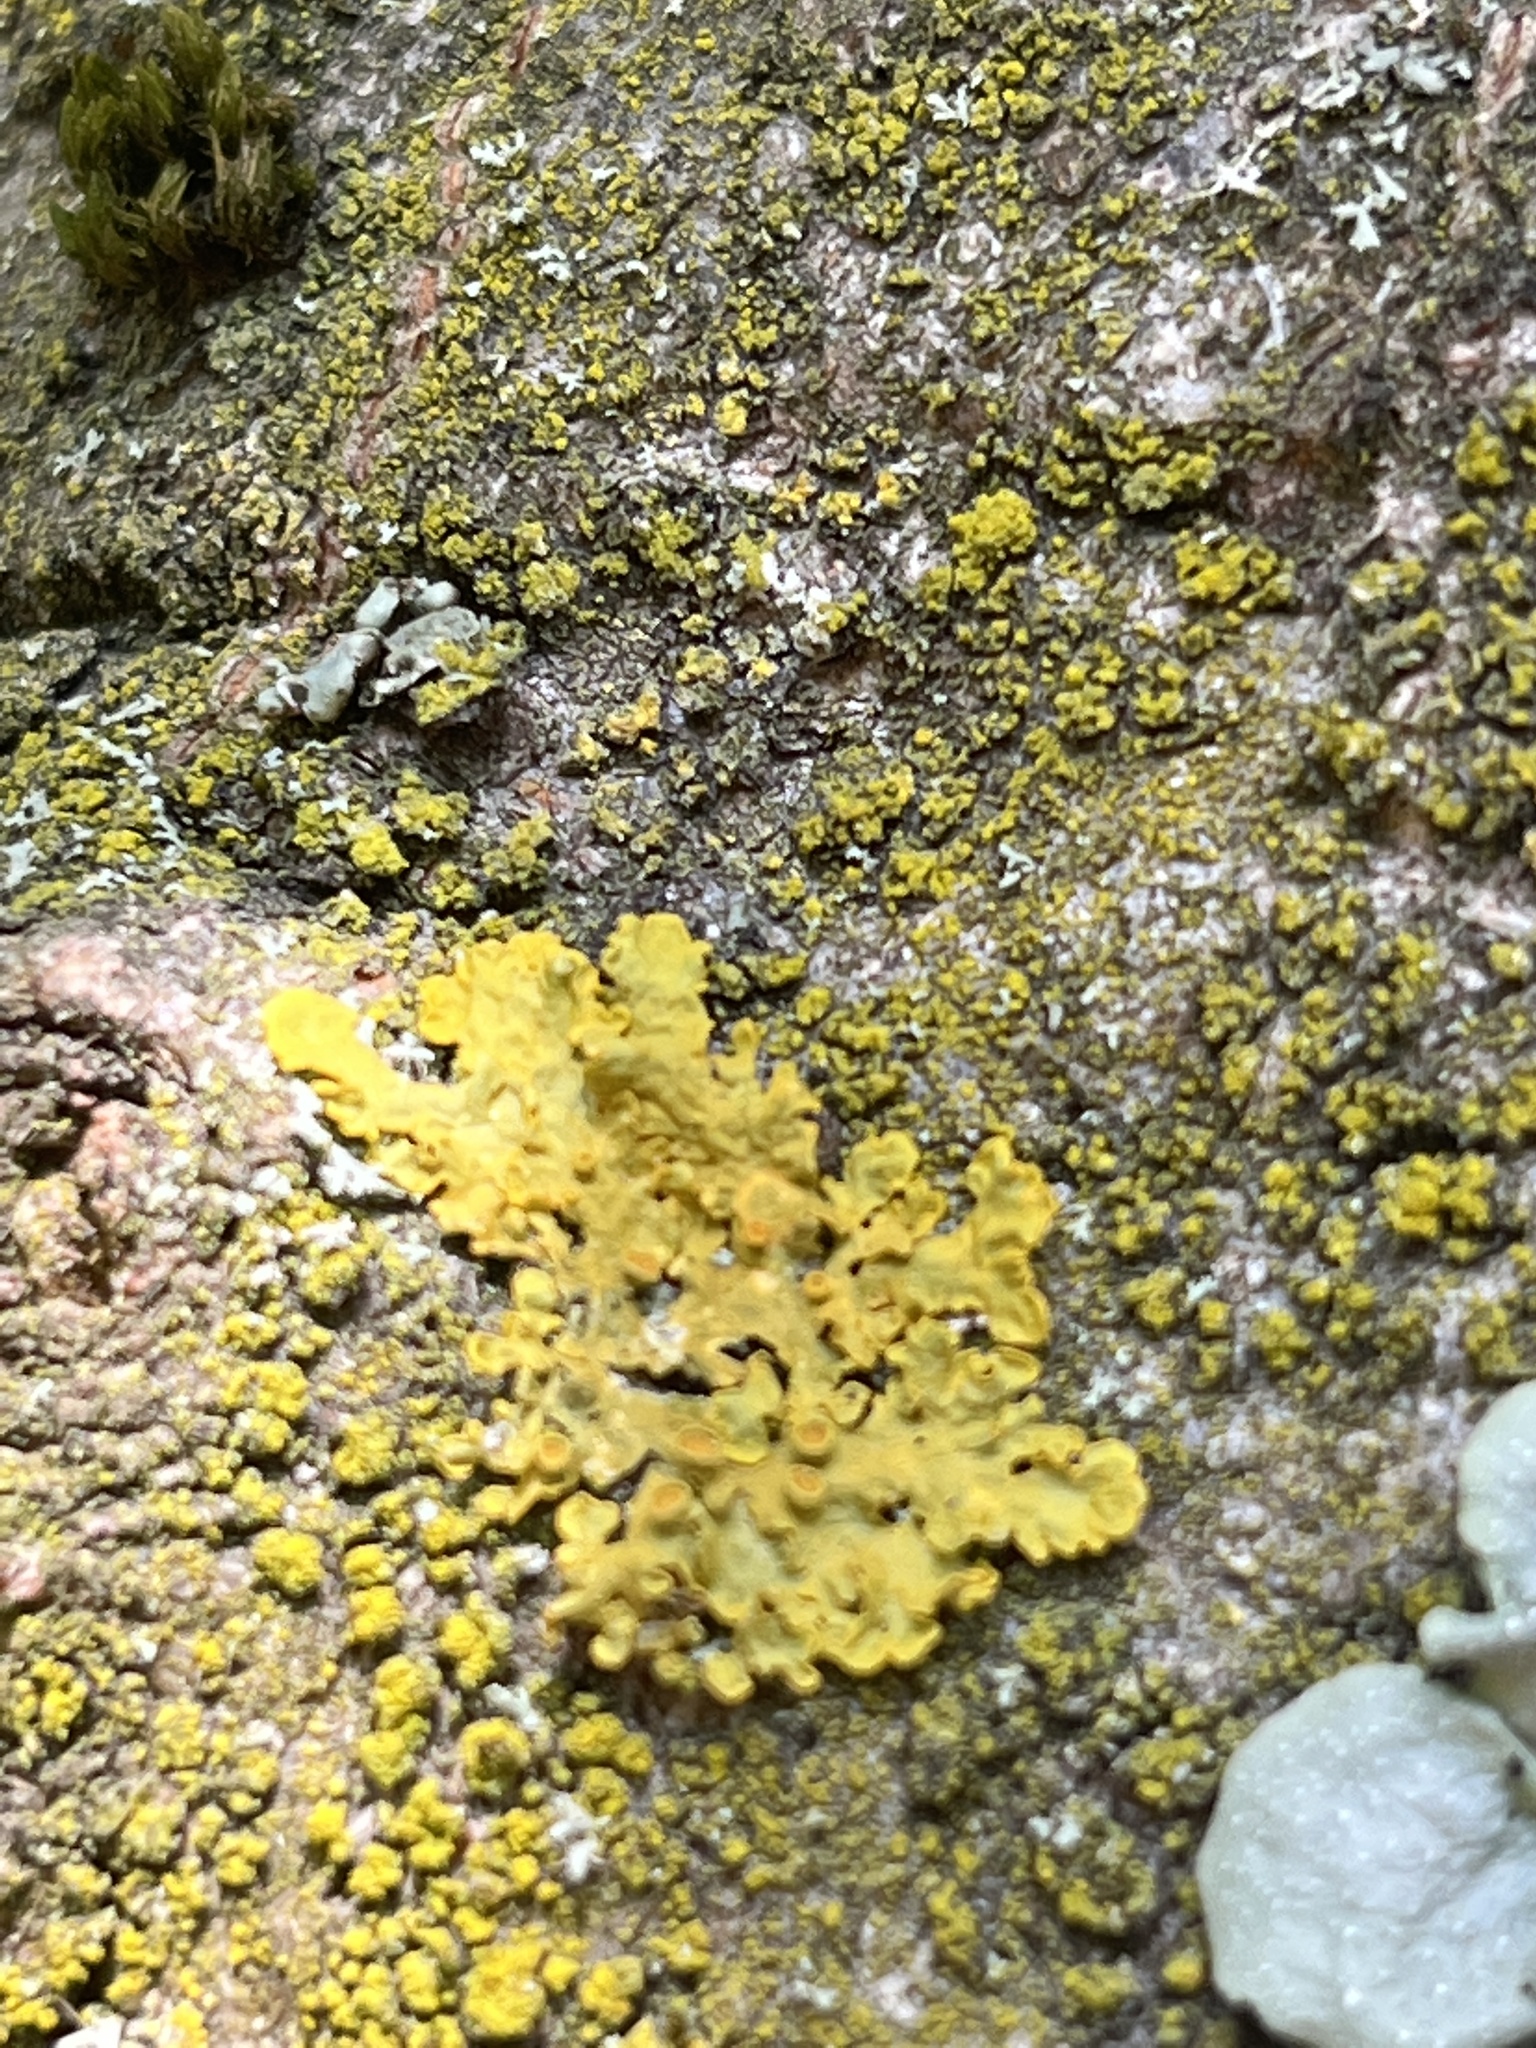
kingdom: Fungi
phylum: Ascomycota
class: Lecanoromycetes
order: Teloschistales
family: Teloschistaceae
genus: Xanthoria
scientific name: Xanthoria parietina
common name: Common orange lichen
